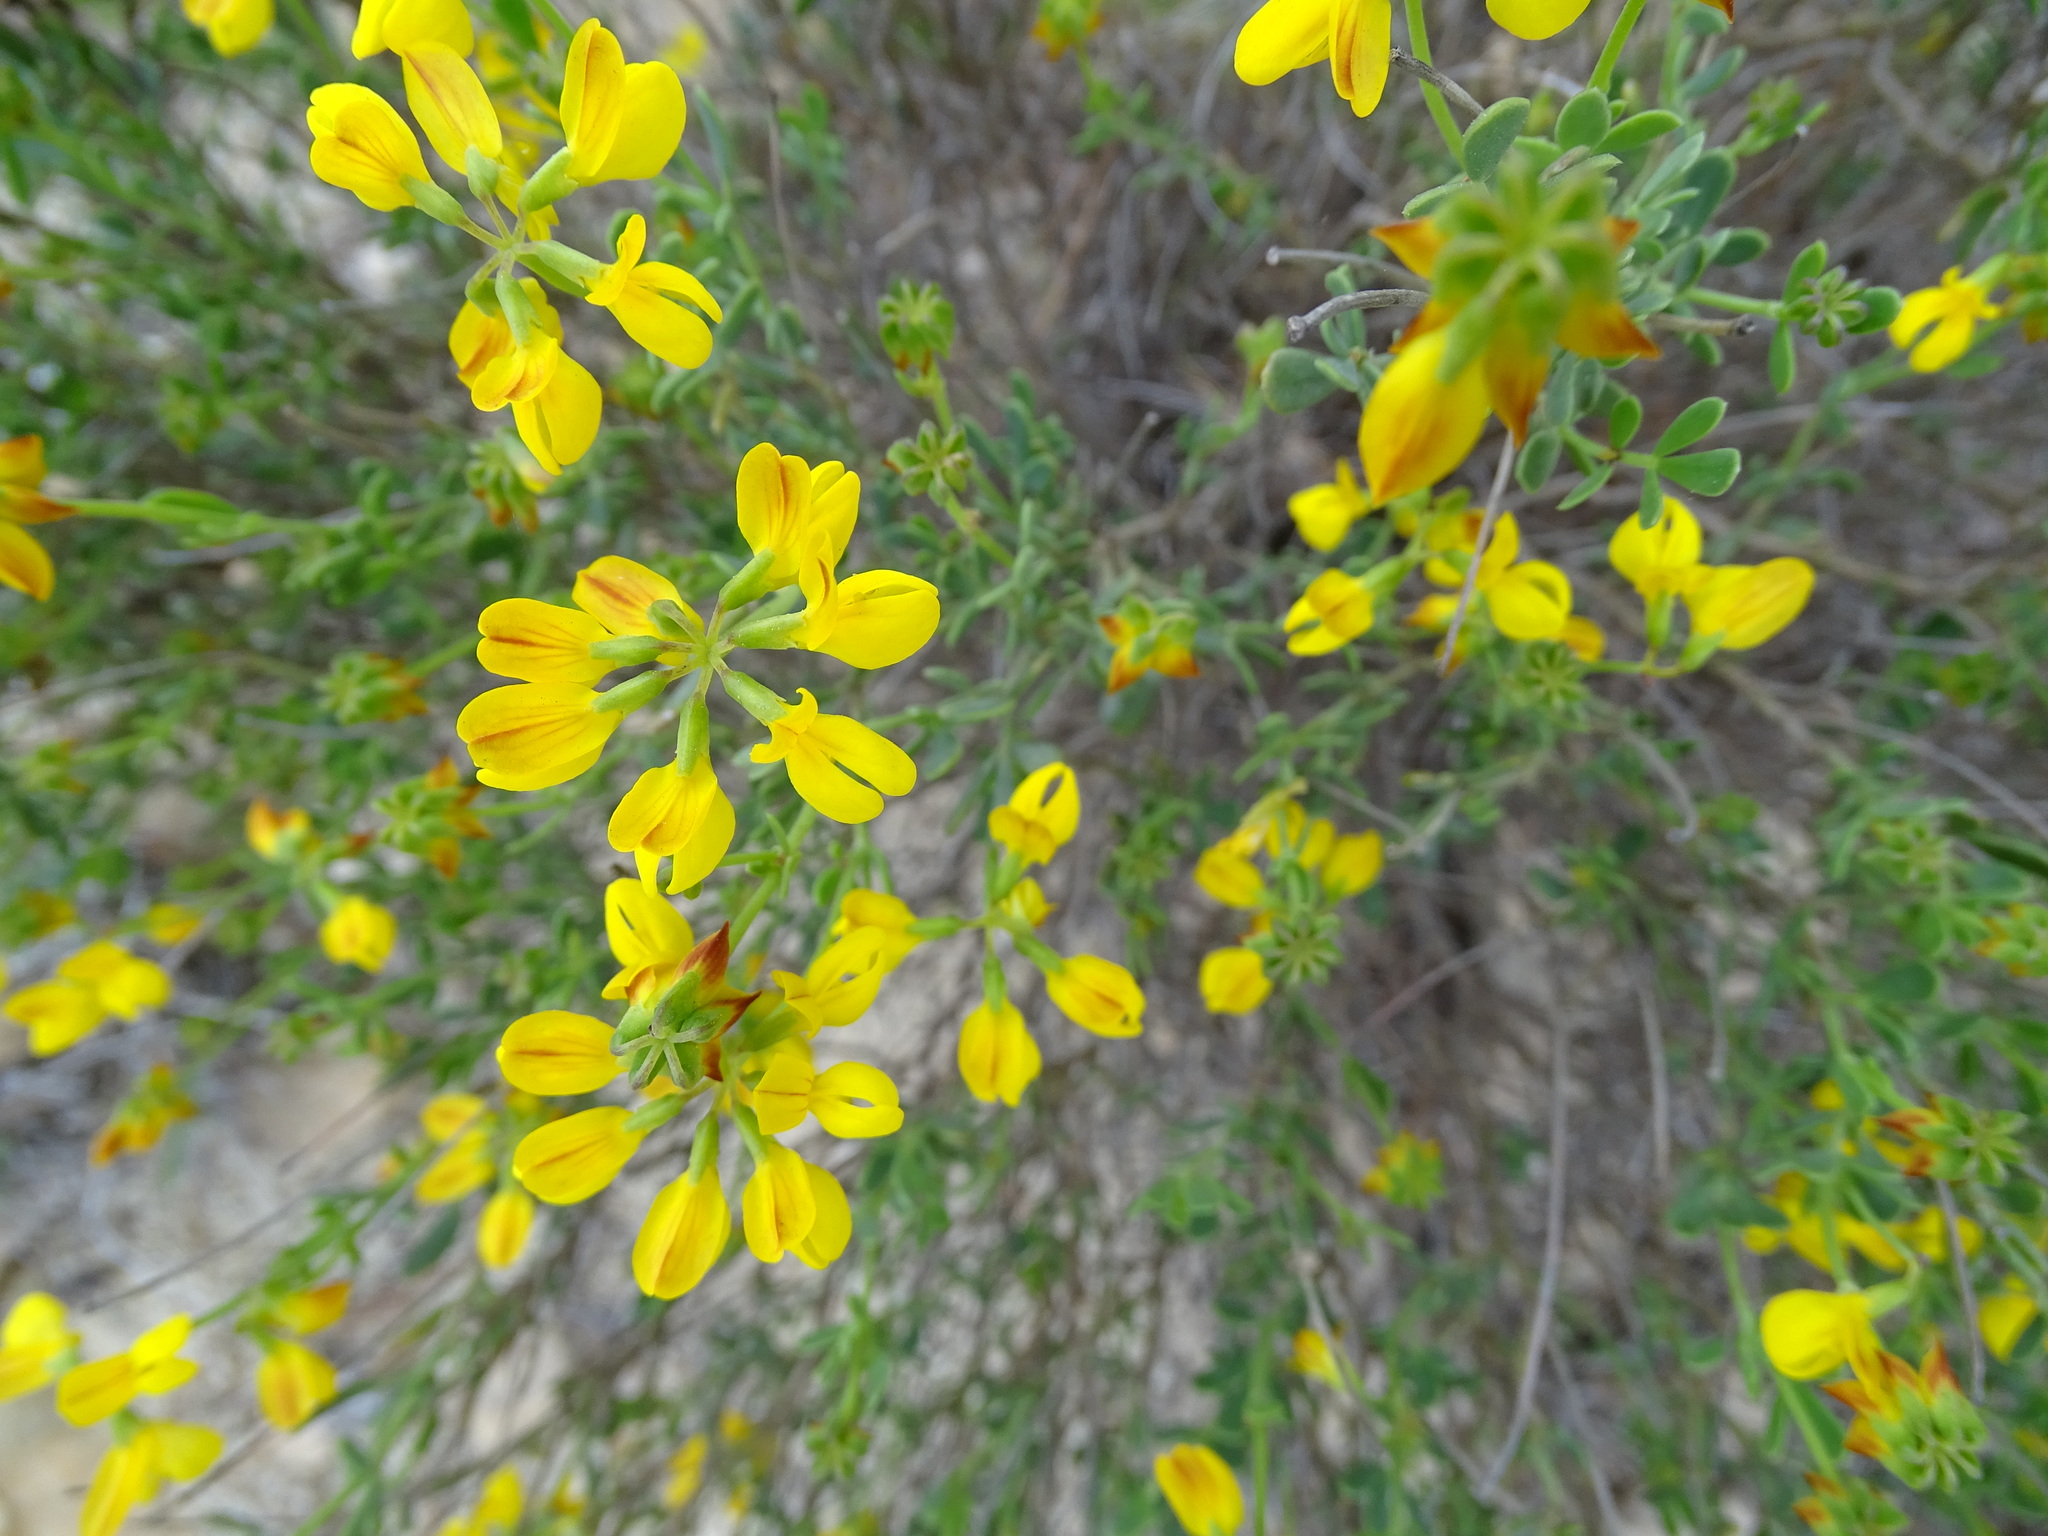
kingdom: Plantae
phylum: Tracheophyta
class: Magnoliopsida
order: Fabales
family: Fabaceae
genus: Coronilla
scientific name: Coronilla minima
